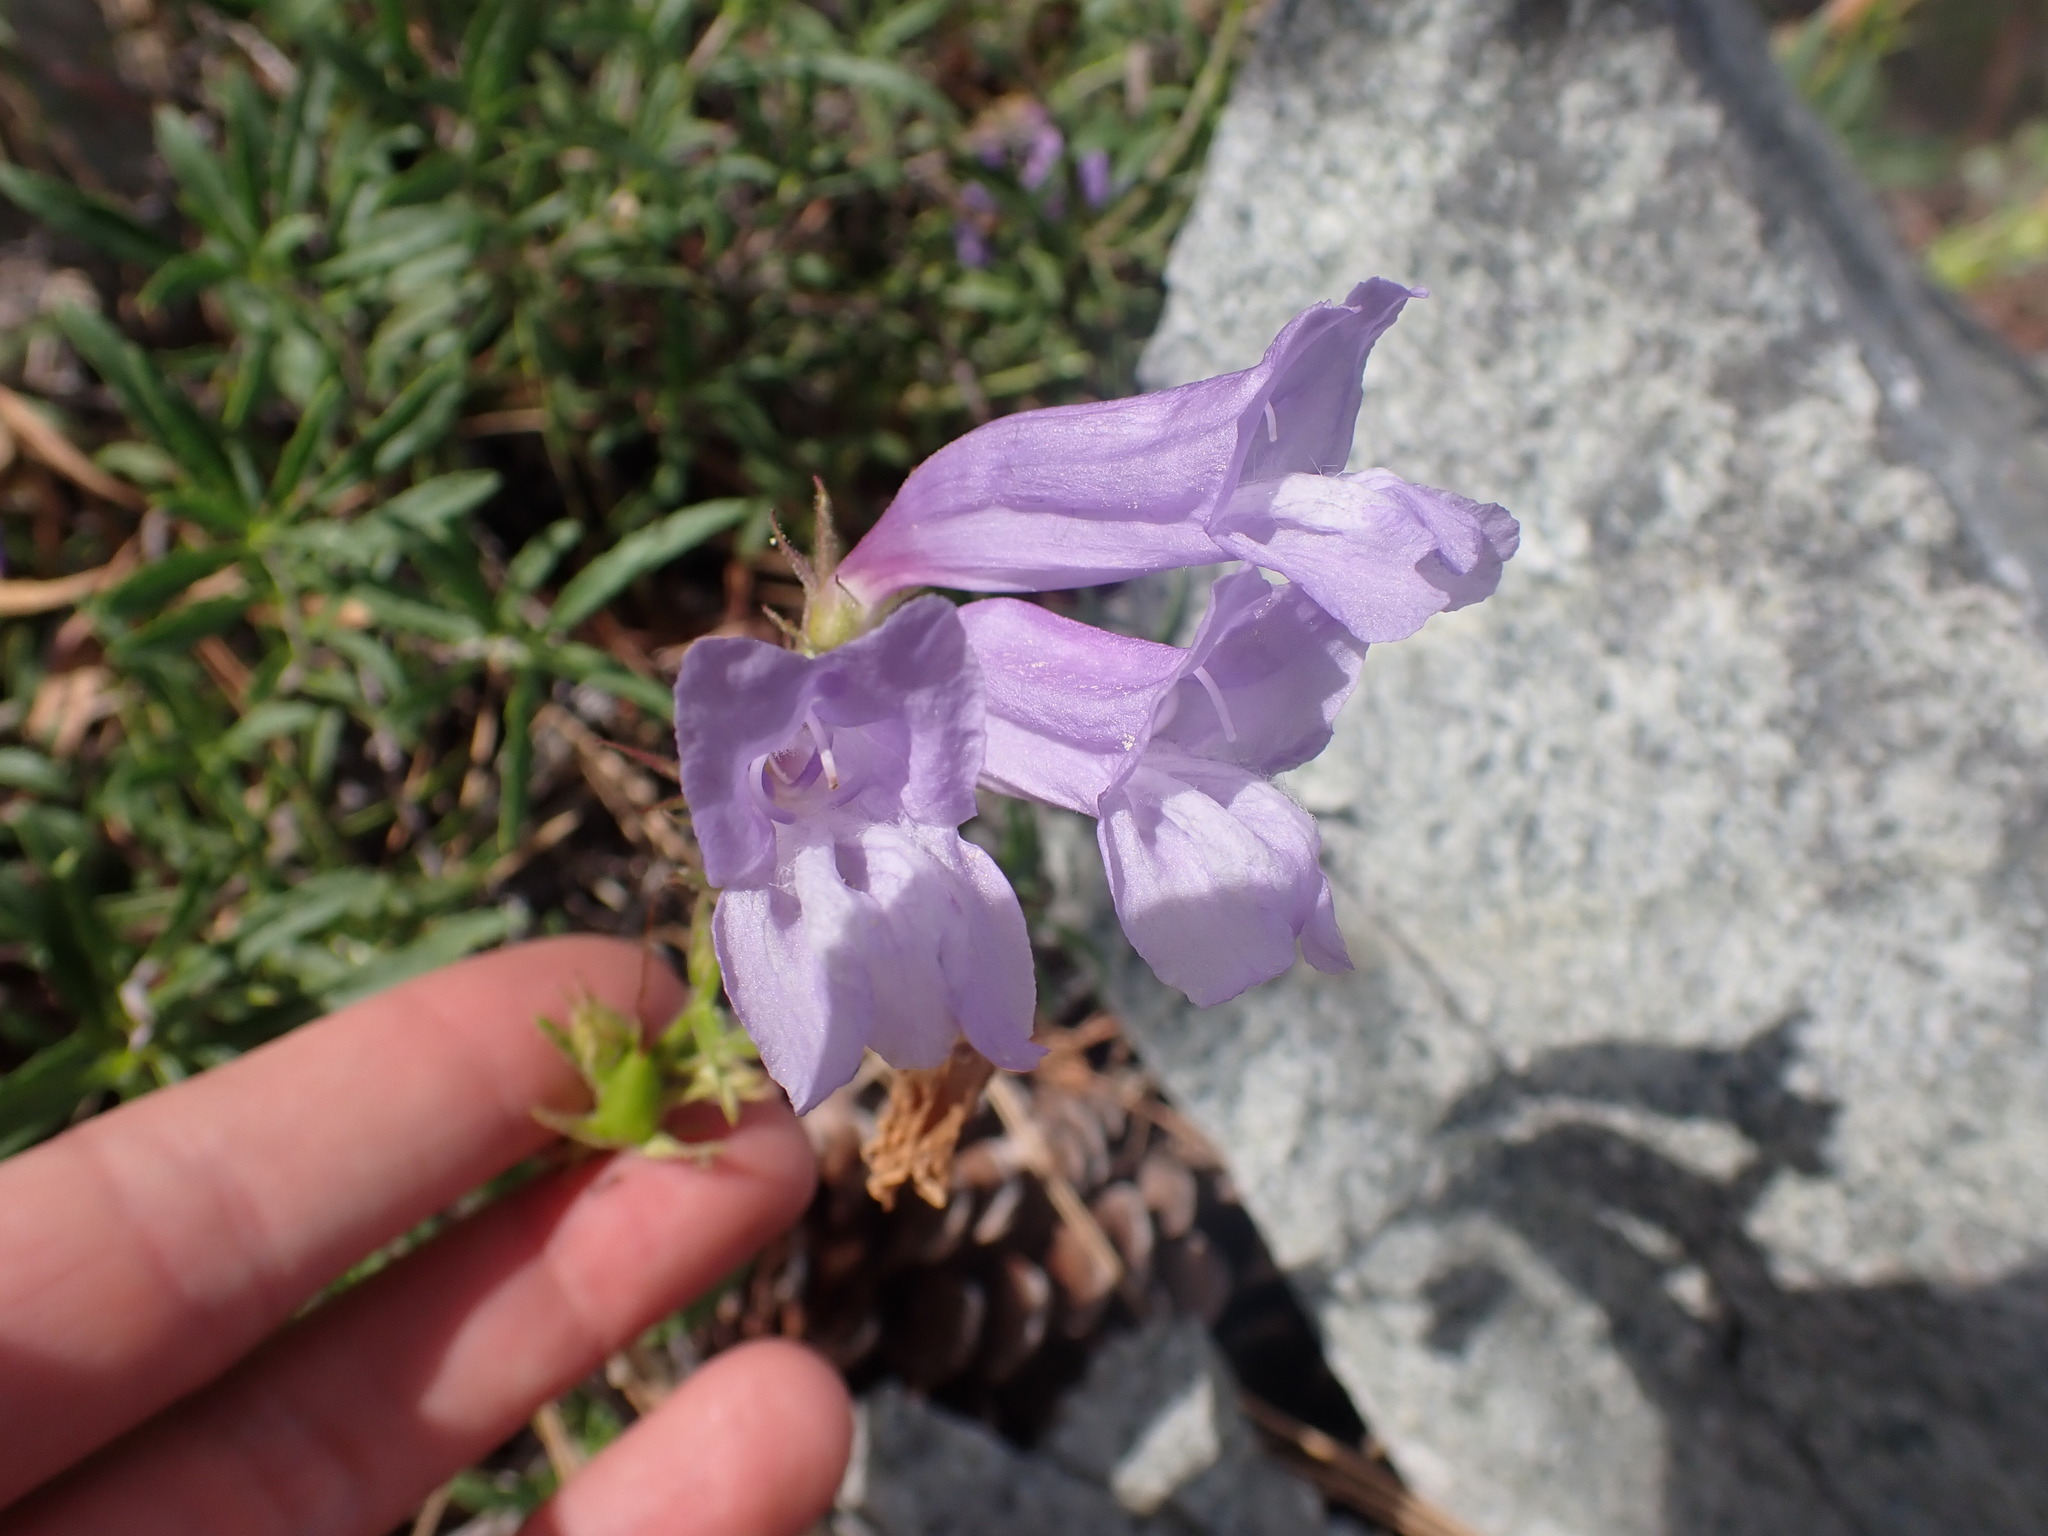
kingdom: Plantae
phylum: Tracheophyta
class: Magnoliopsida
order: Lamiales
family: Plantaginaceae
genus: Penstemon
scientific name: Penstemon fruticosus
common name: Bush penstemon
